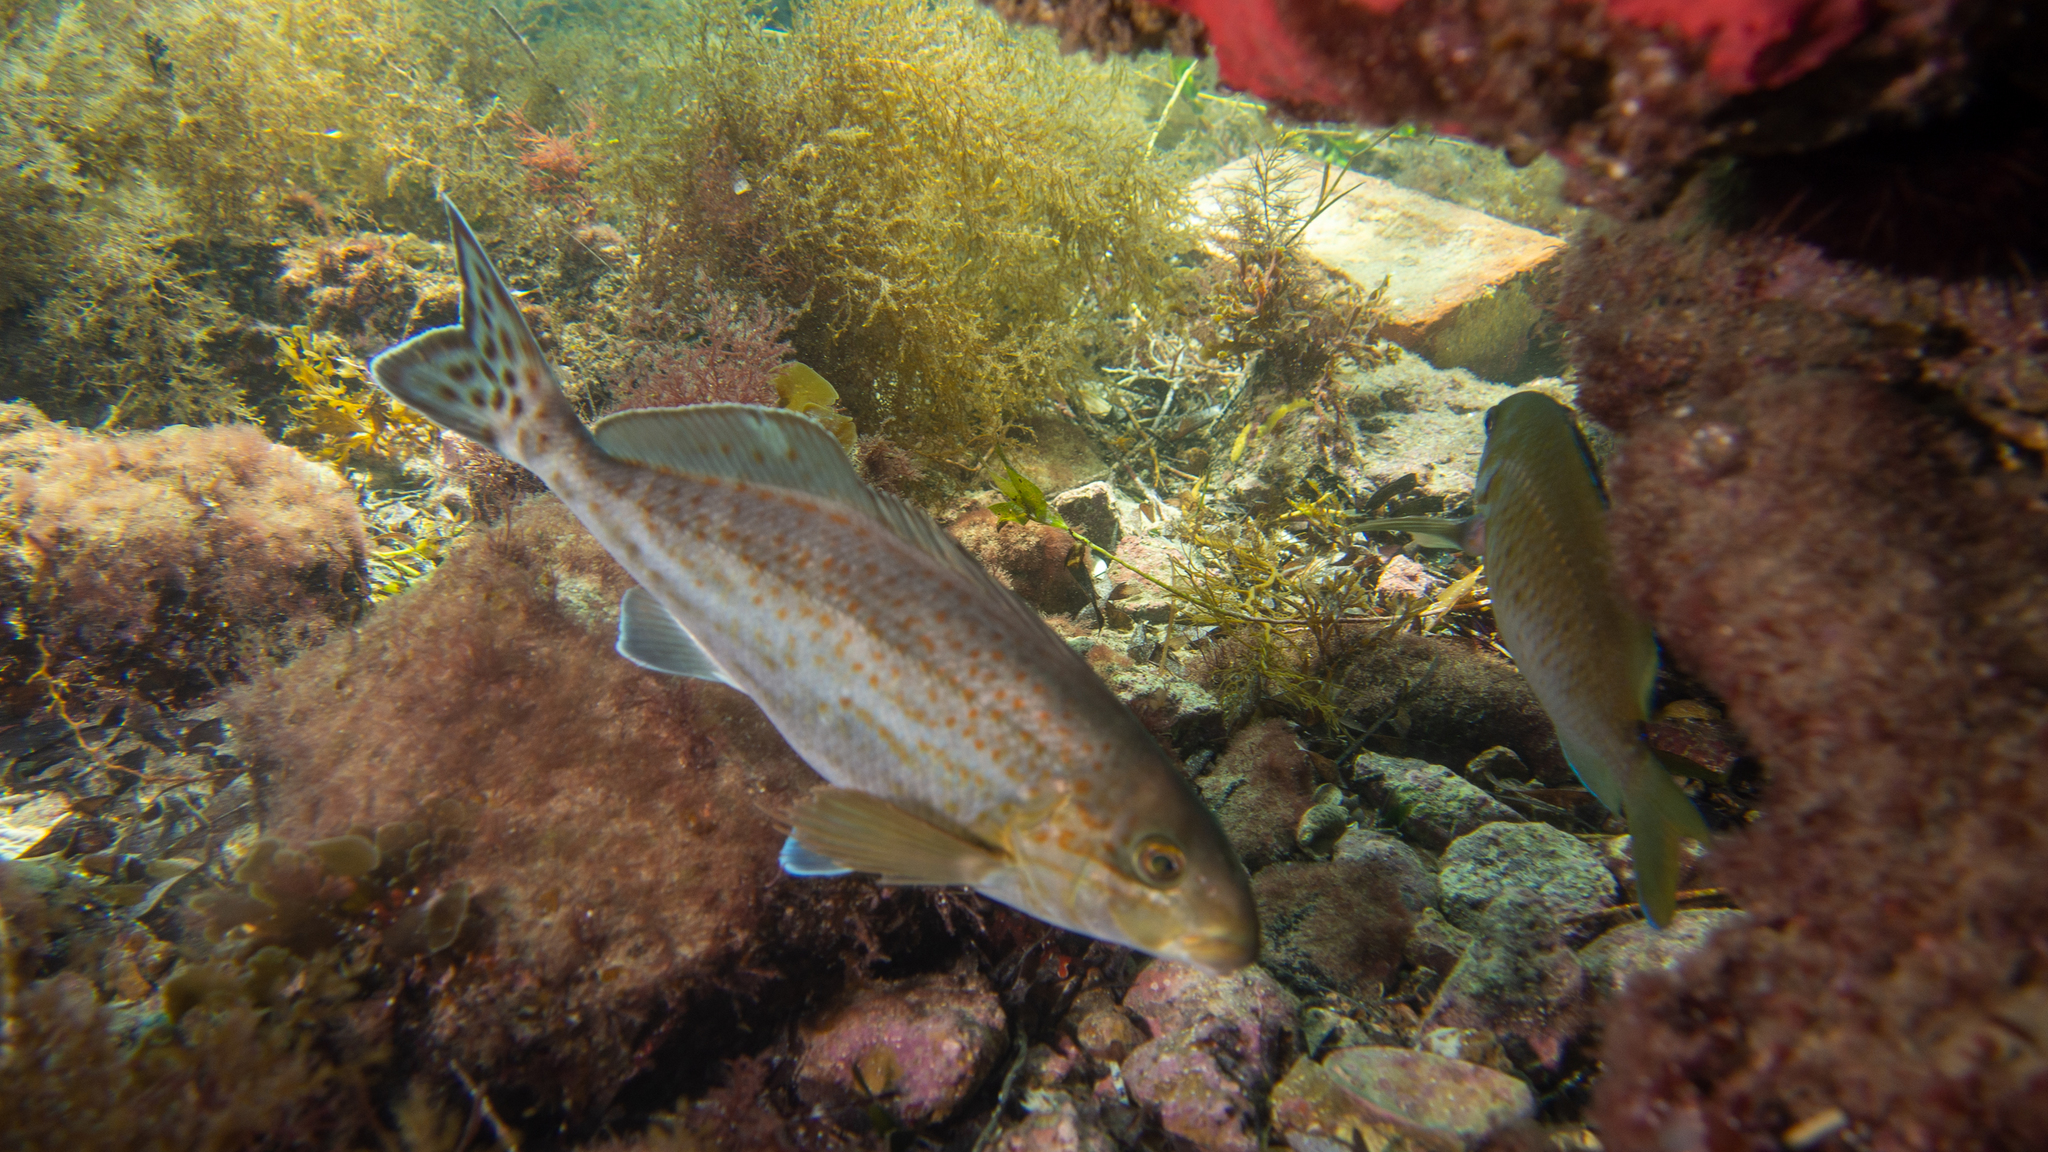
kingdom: Animalia
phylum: Chordata
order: Perciformes
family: Cheilodactylidae
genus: Dactylophora
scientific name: Dactylophora nigricans
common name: Dusky morwong
